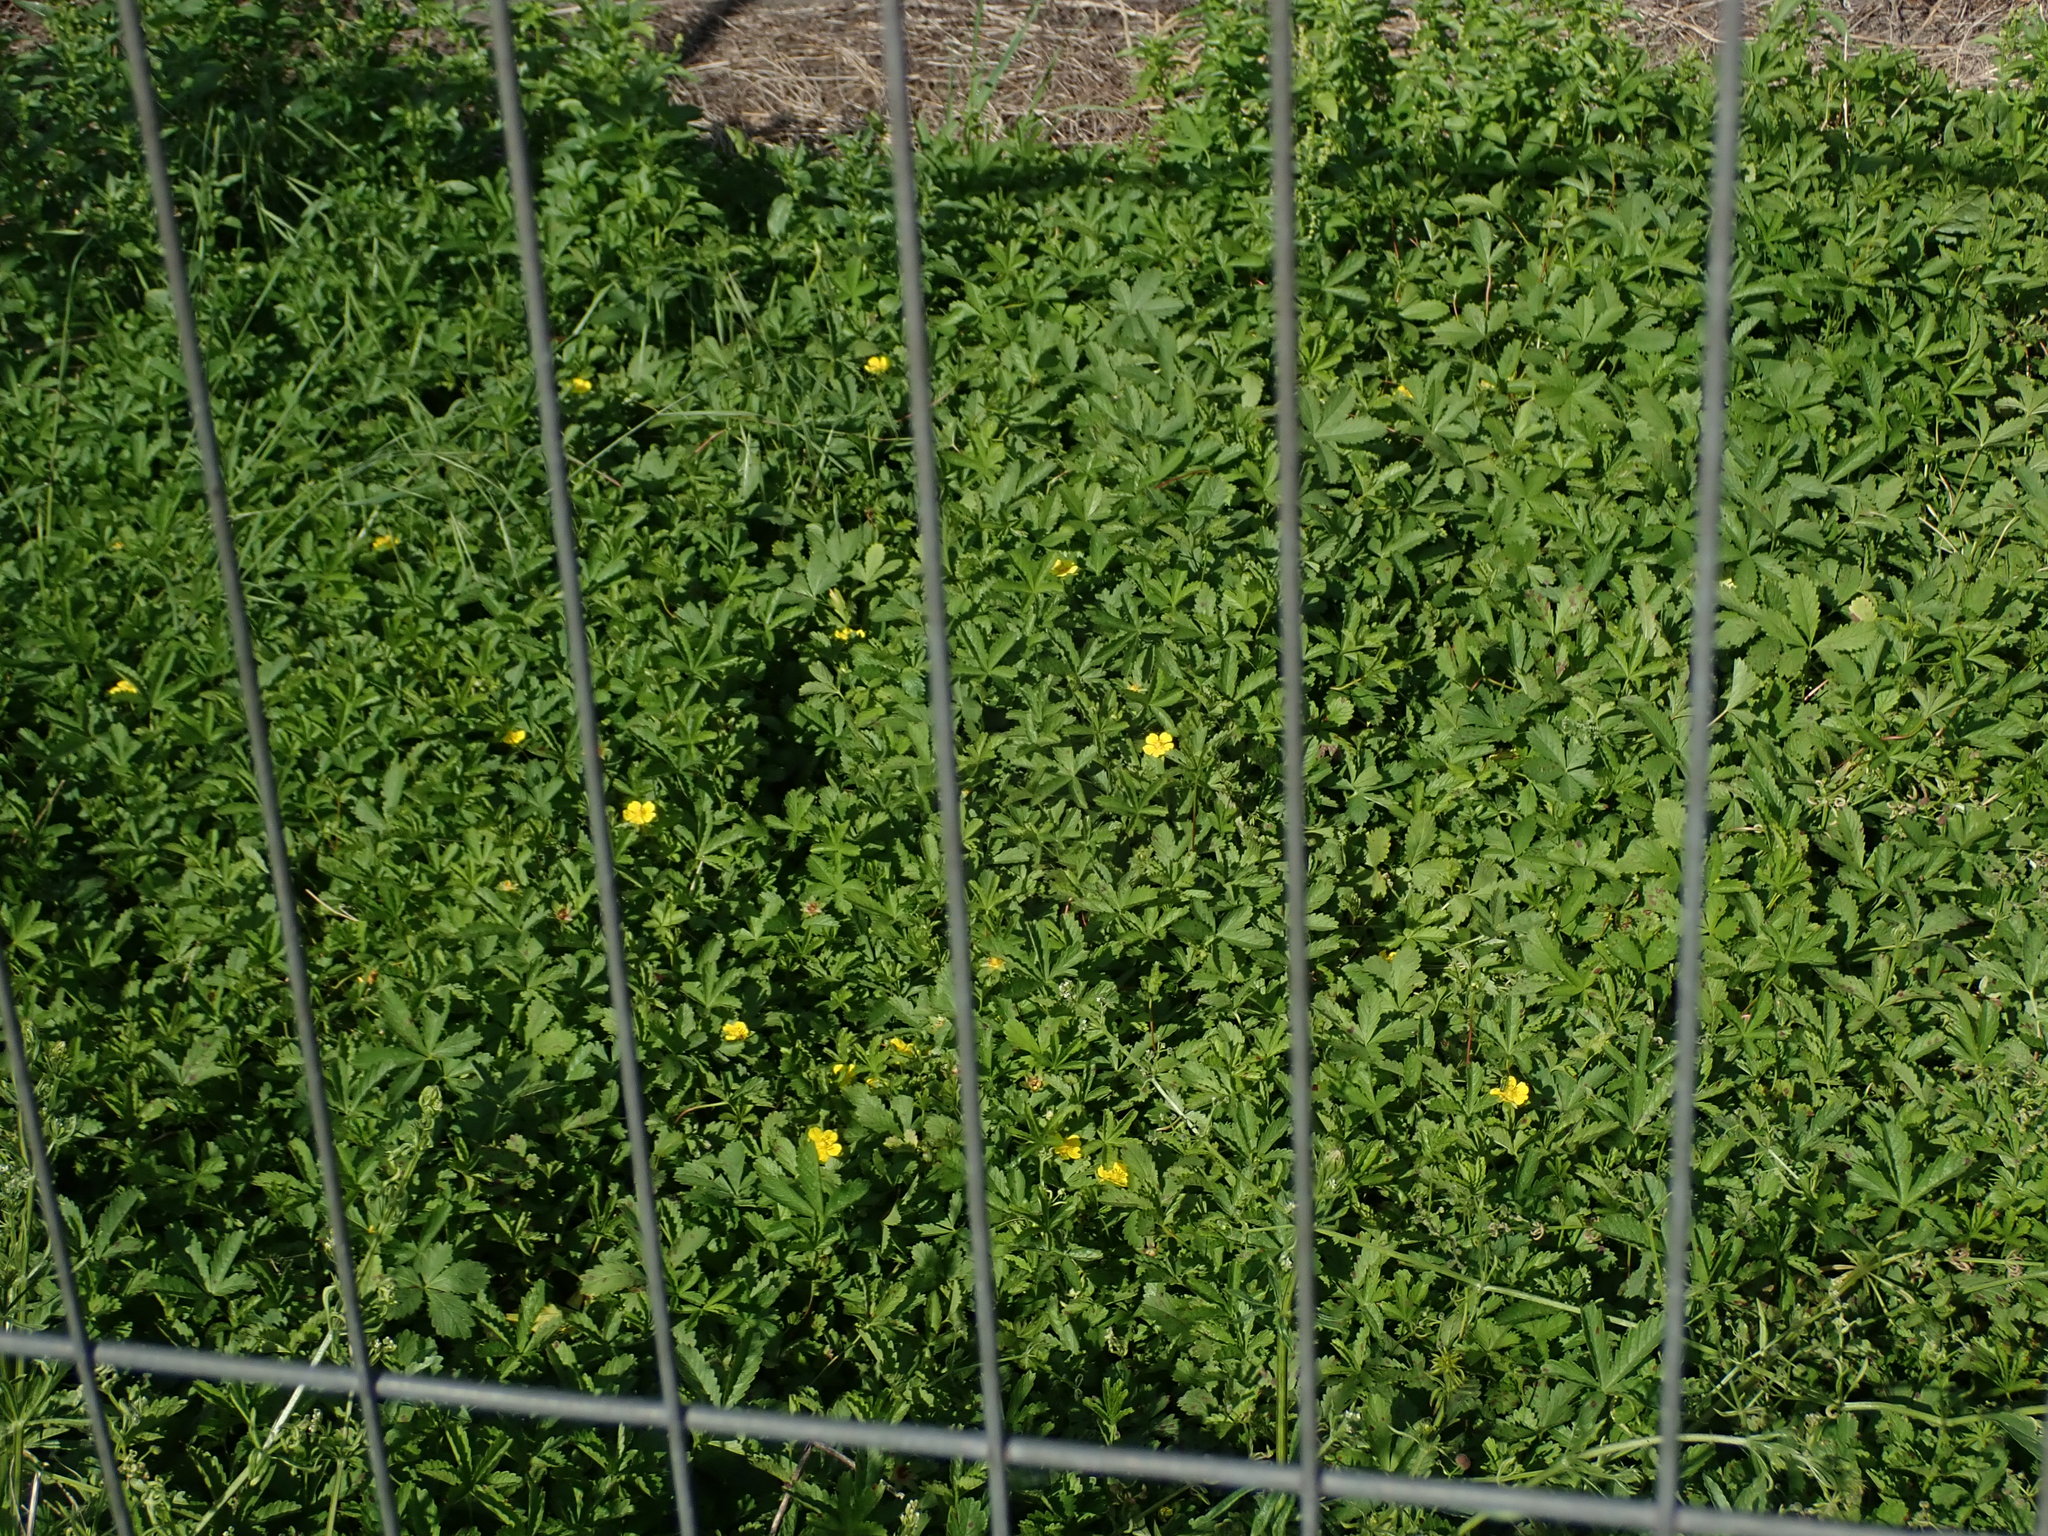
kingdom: Plantae
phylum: Tracheophyta
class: Magnoliopsida
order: Rosales
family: Rosaceae
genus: Potentilla
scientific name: Potentilla reptans
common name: Creeping cinquefoil
